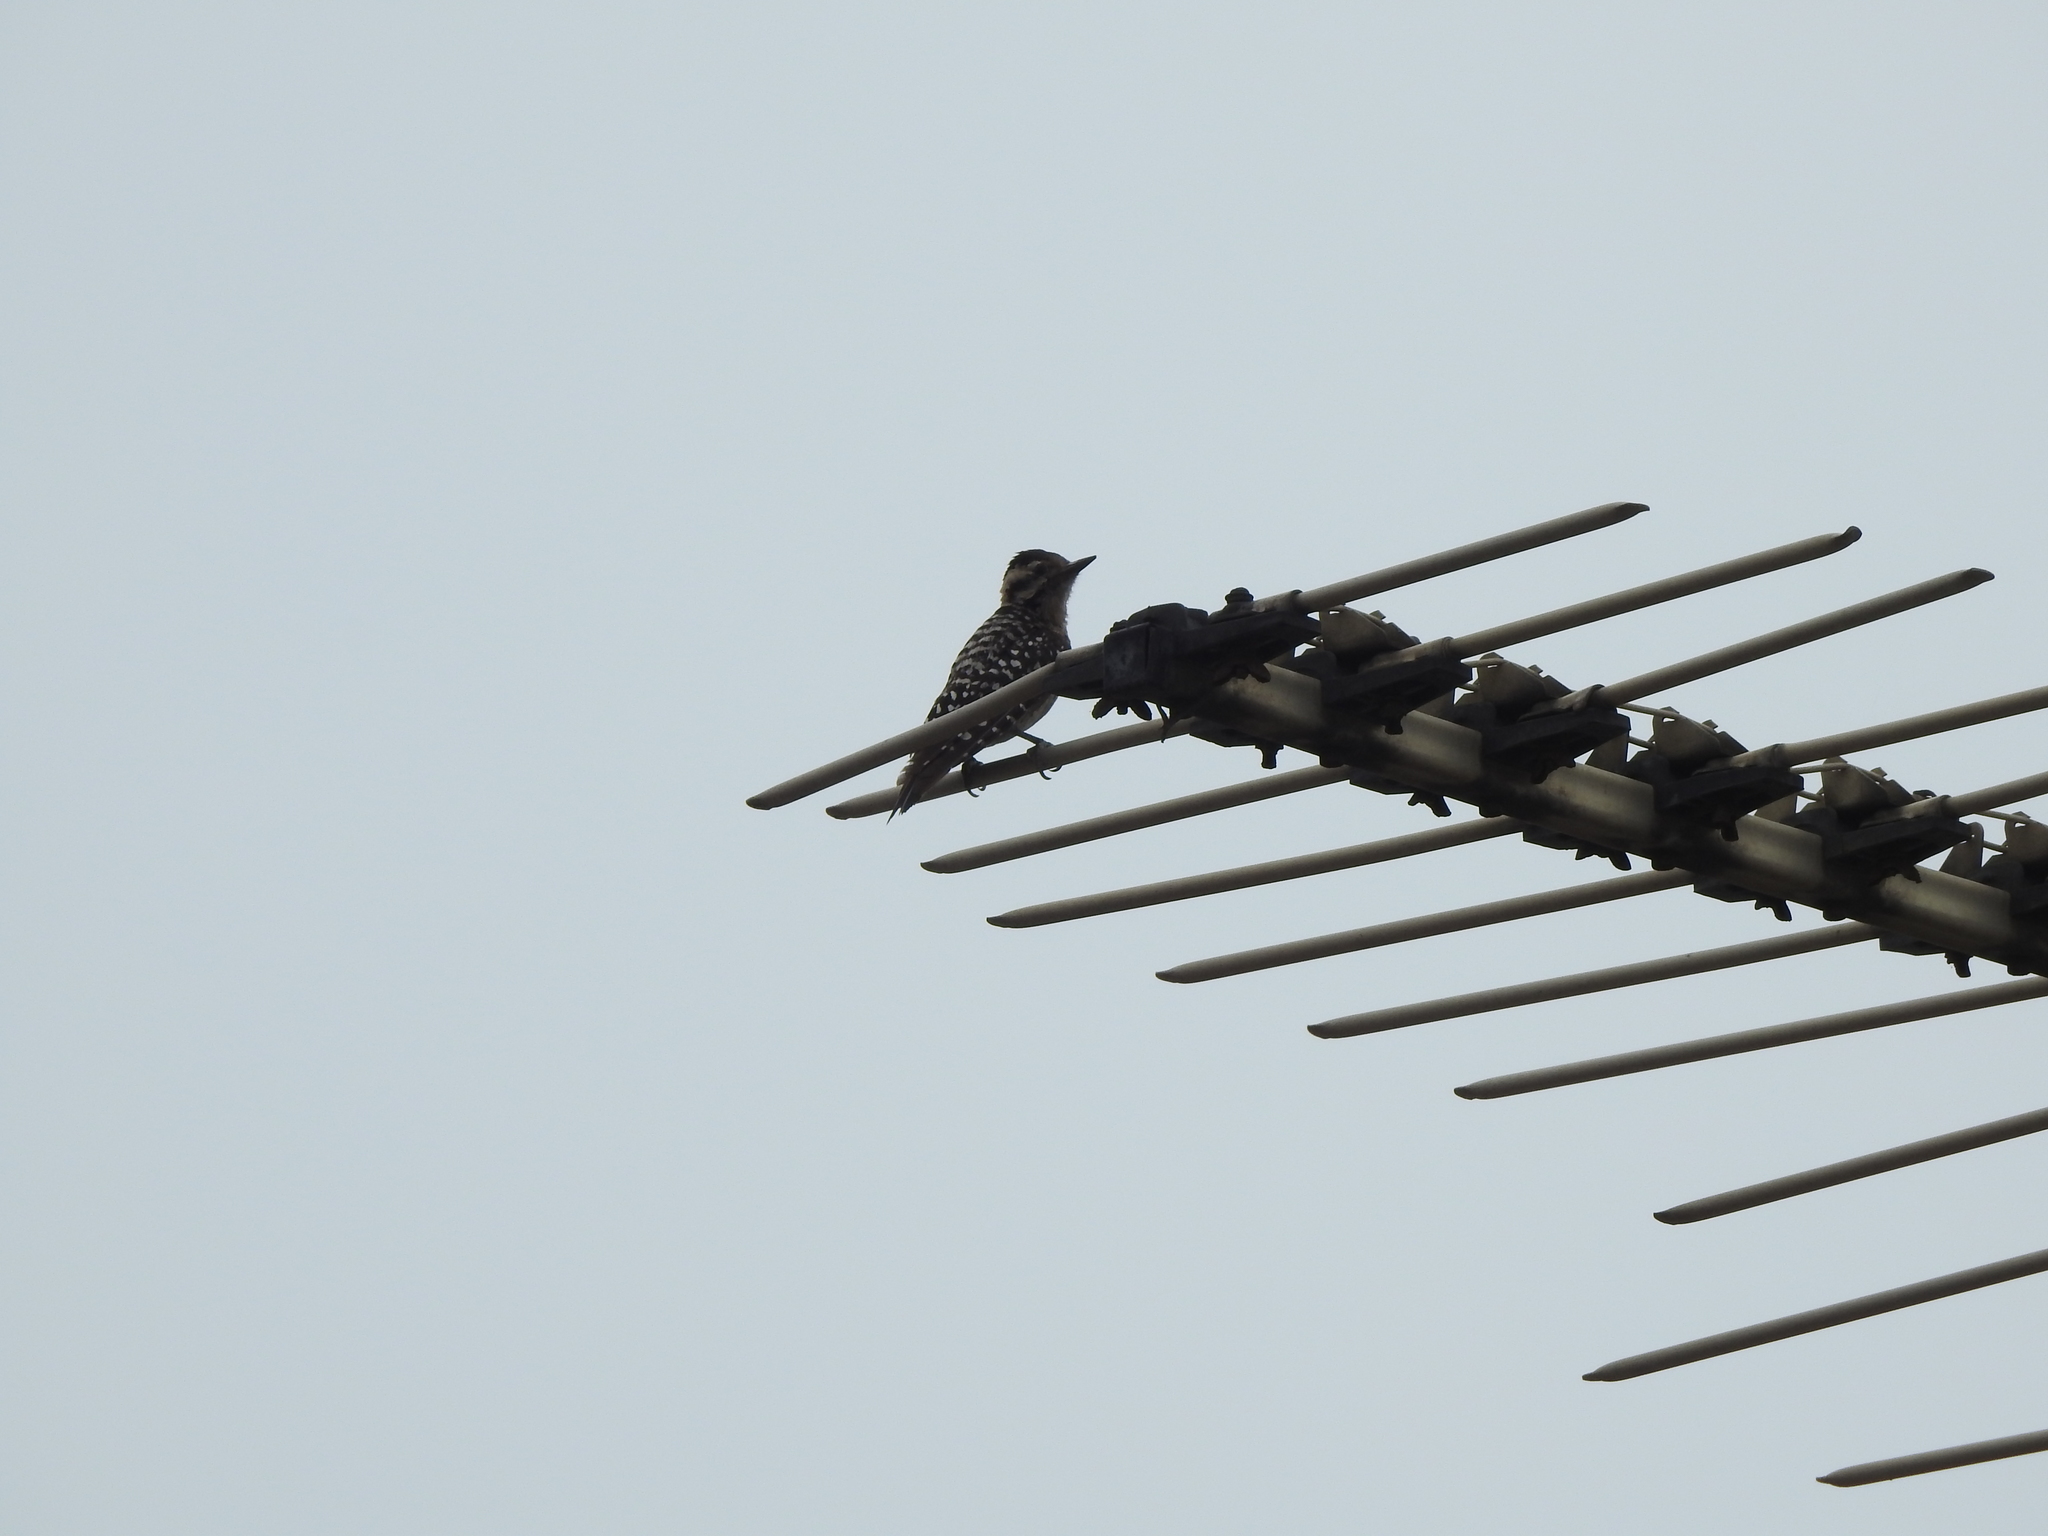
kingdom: Animalia
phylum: Chordata
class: Aves
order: Piciformes
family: Picidae
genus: Dryobates
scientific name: Dryobates scalaris
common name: Ladder-backed woodpecker
